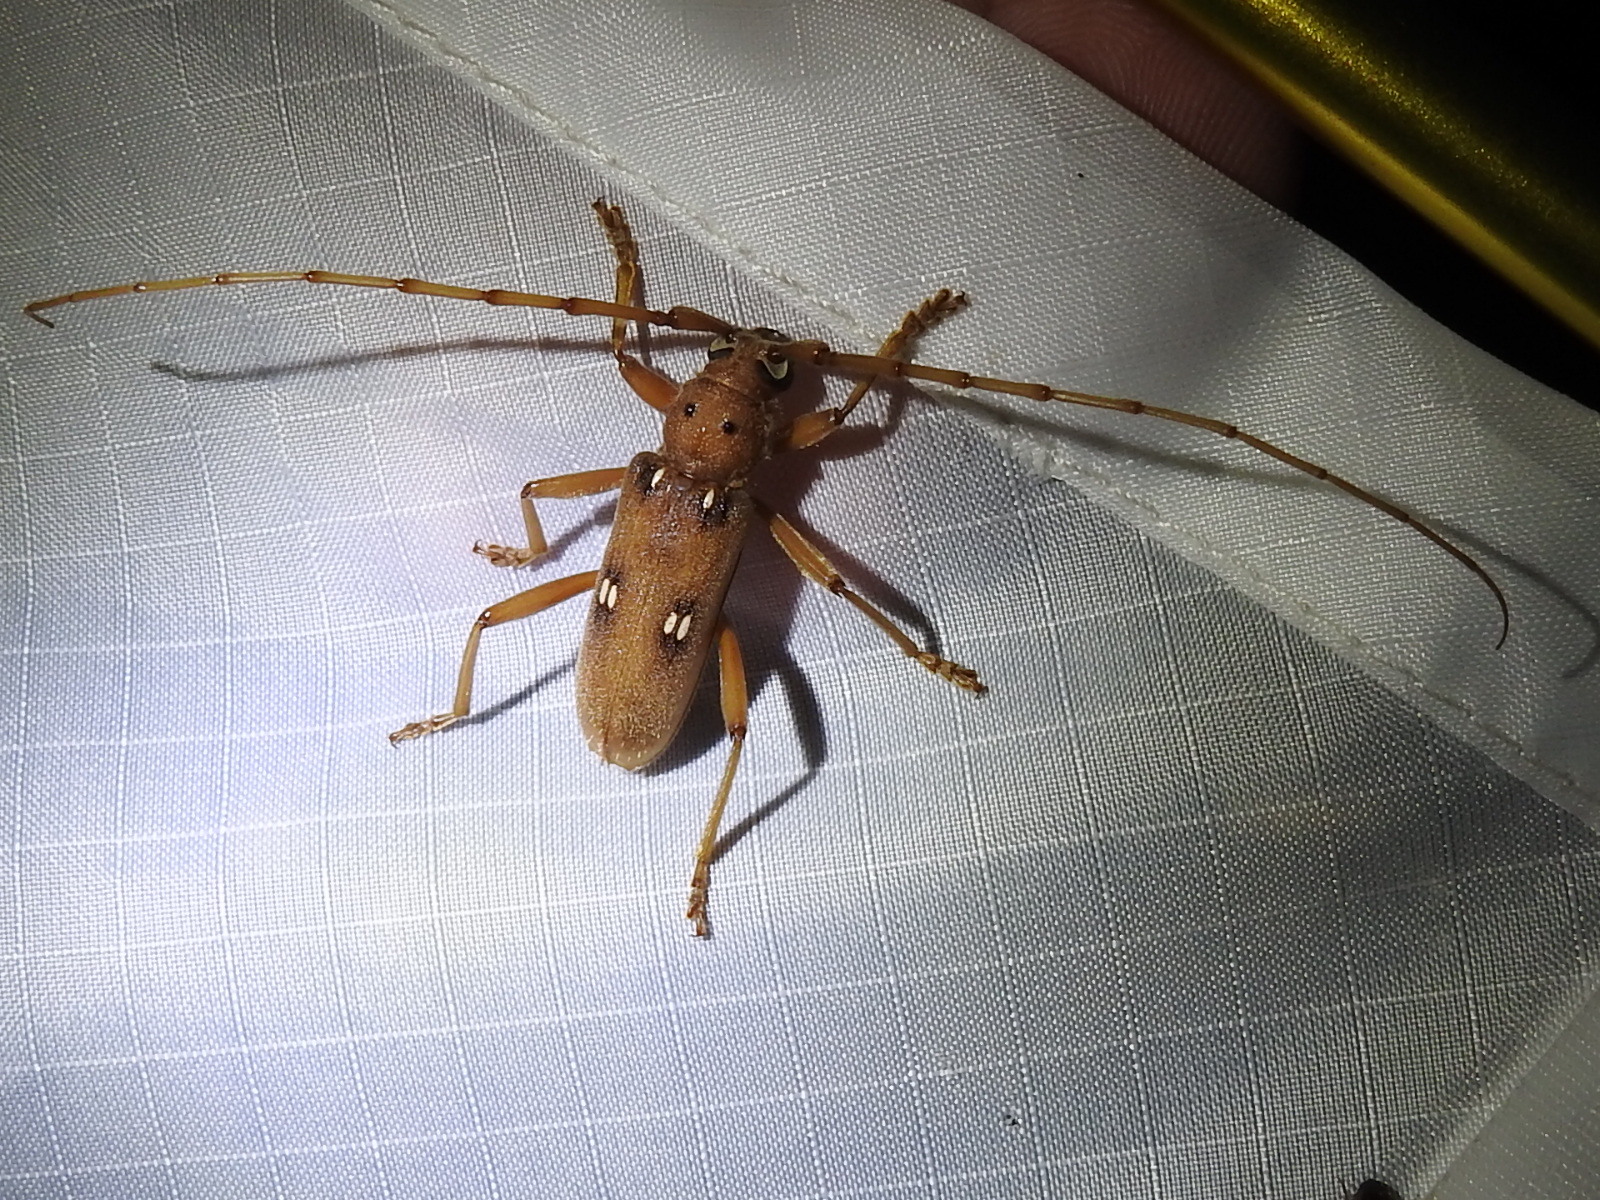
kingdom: Animalia
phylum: Arthropoda
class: Insecta
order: Coleoptera
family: Cerambycidae
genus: Eburia
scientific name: Eburia quadrigeminata
